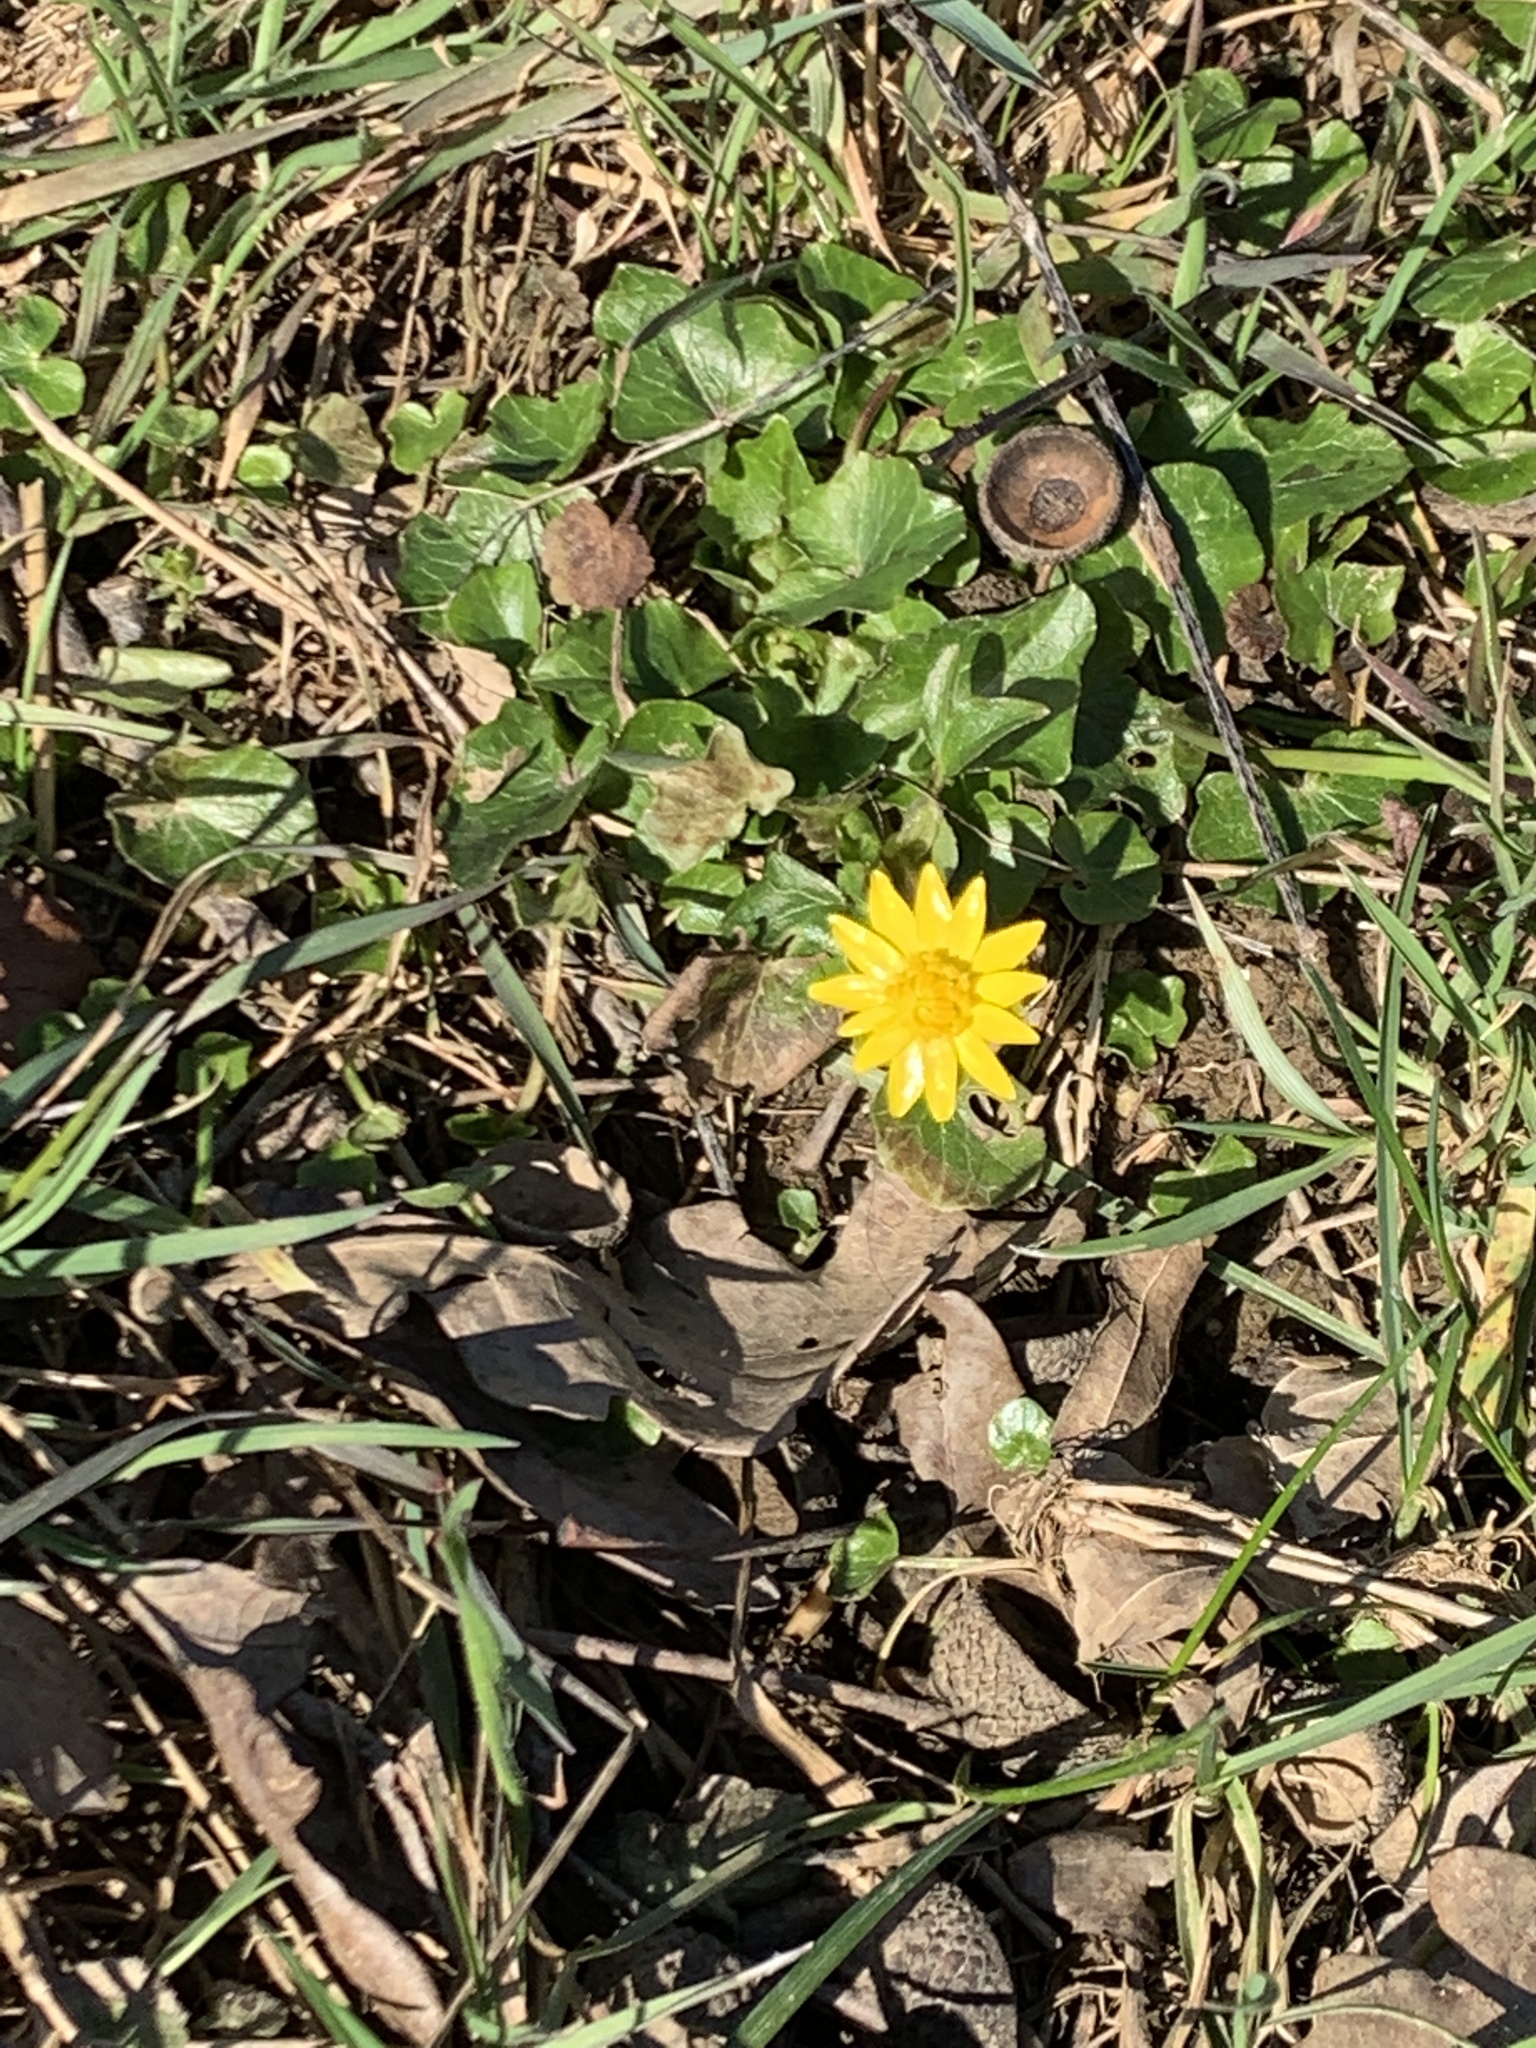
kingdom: Plantae
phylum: Tracheophyta
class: Magnoliopsida
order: Ranunculales
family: Ranunculaceae
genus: Ficaria
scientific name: Ficaria verna
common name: Lesser celandine
